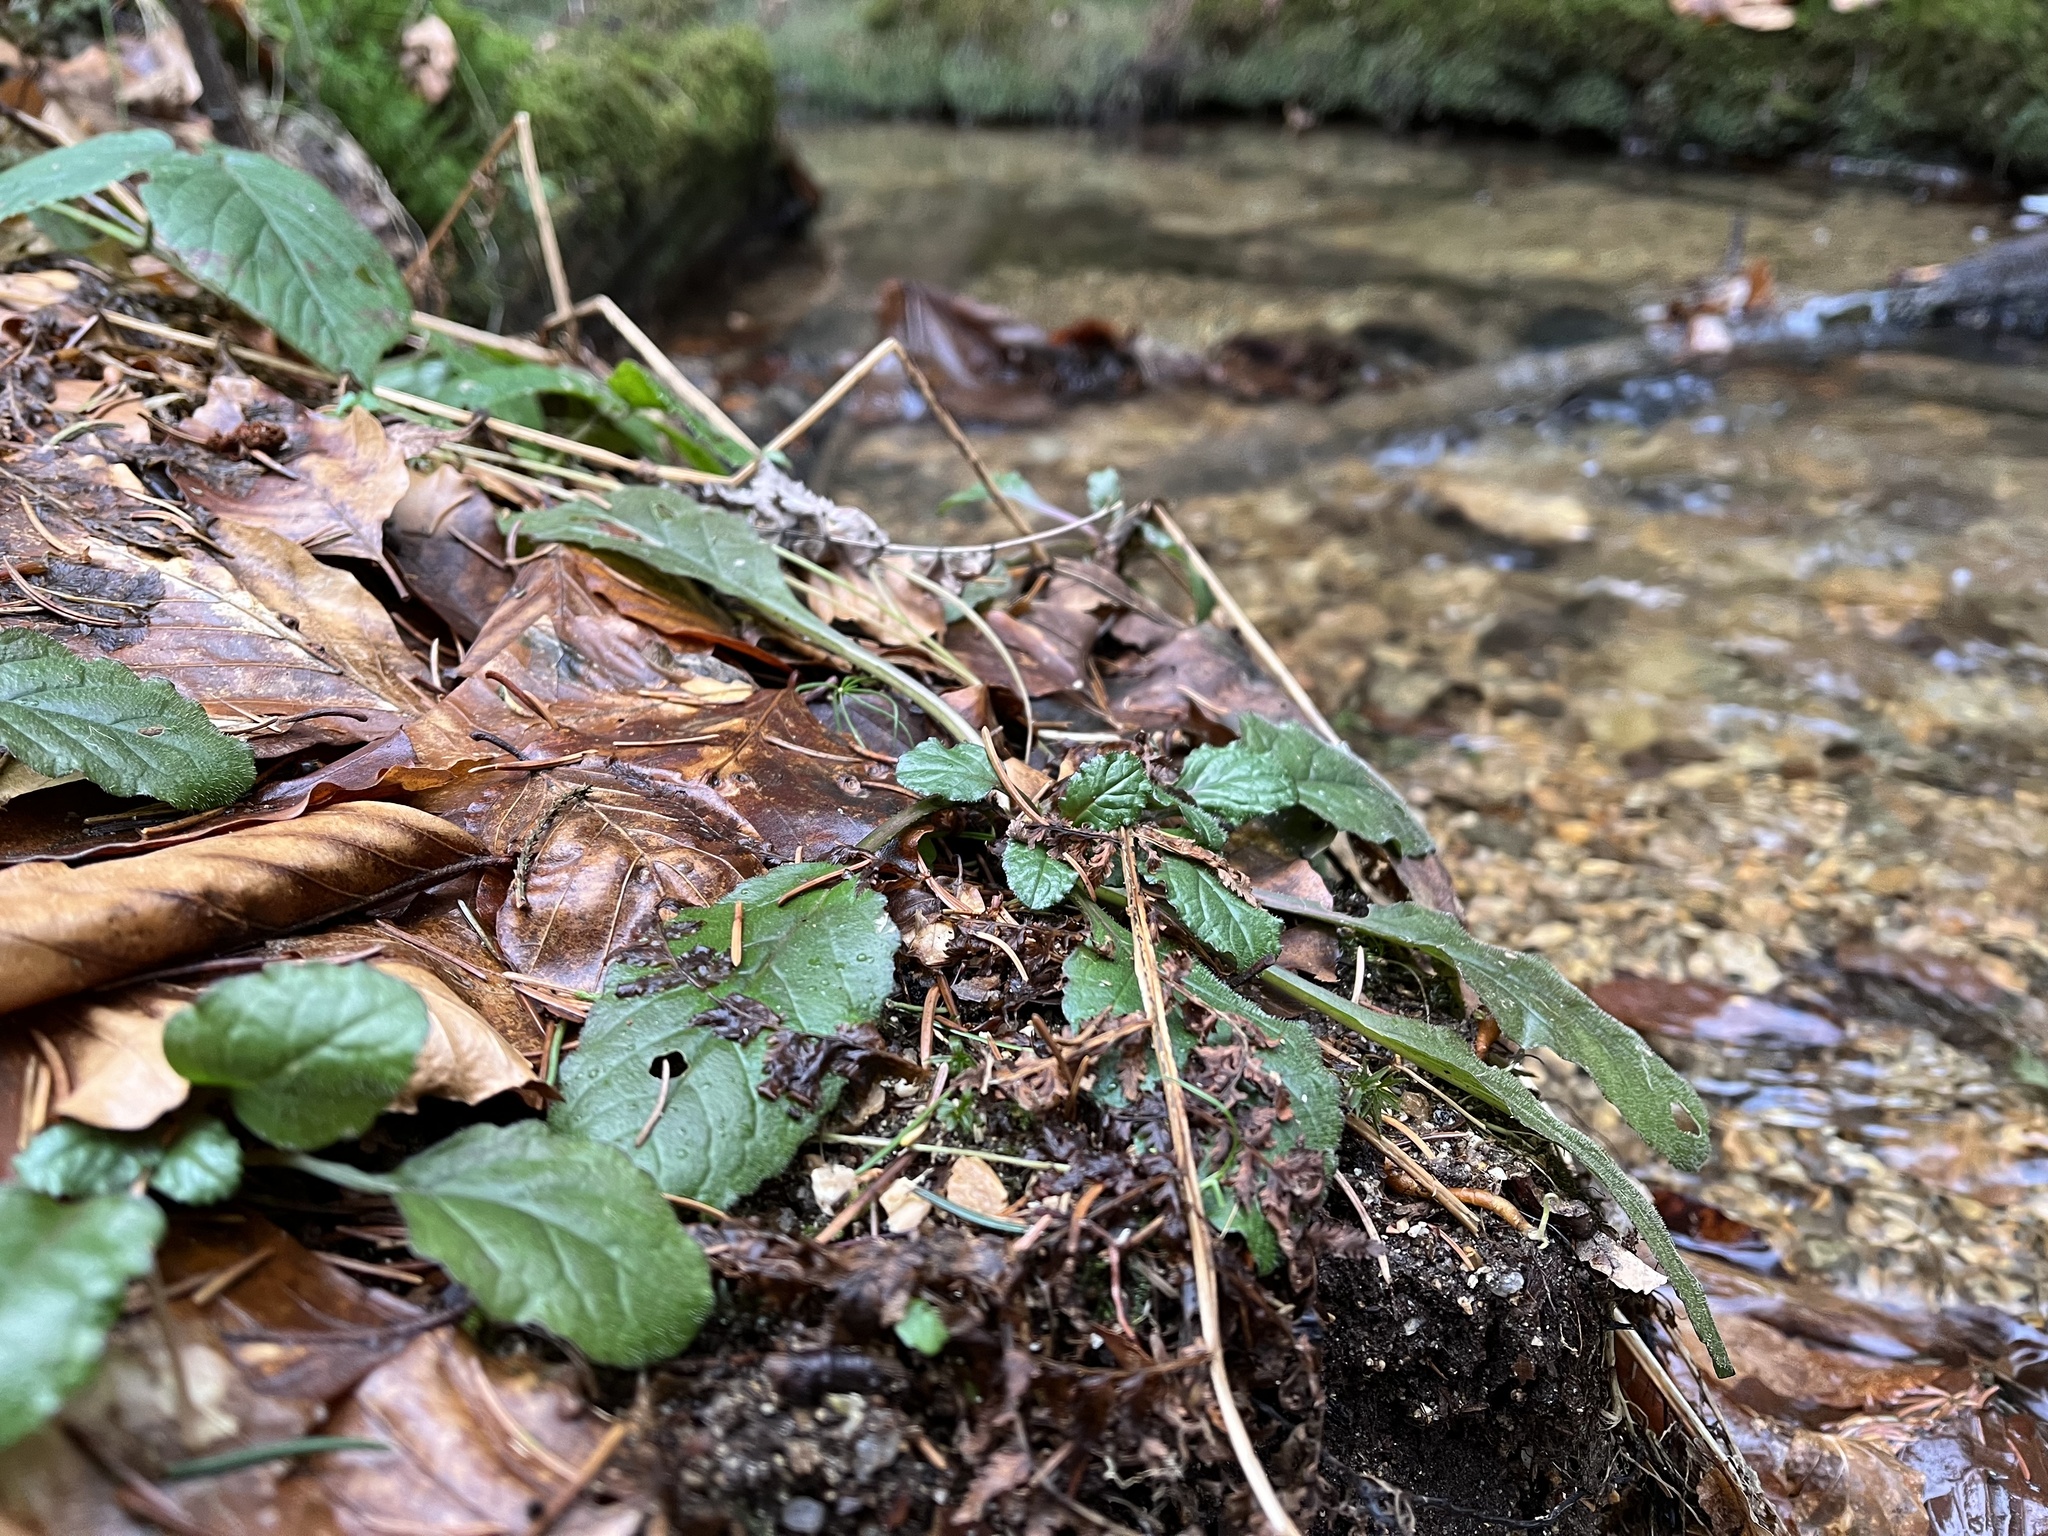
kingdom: Plantae
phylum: Tracheophyta
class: Magnoliopsida
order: Lamiales
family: Lamiaceae
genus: Ajuga
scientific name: Ajuga reptans
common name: Bugle
